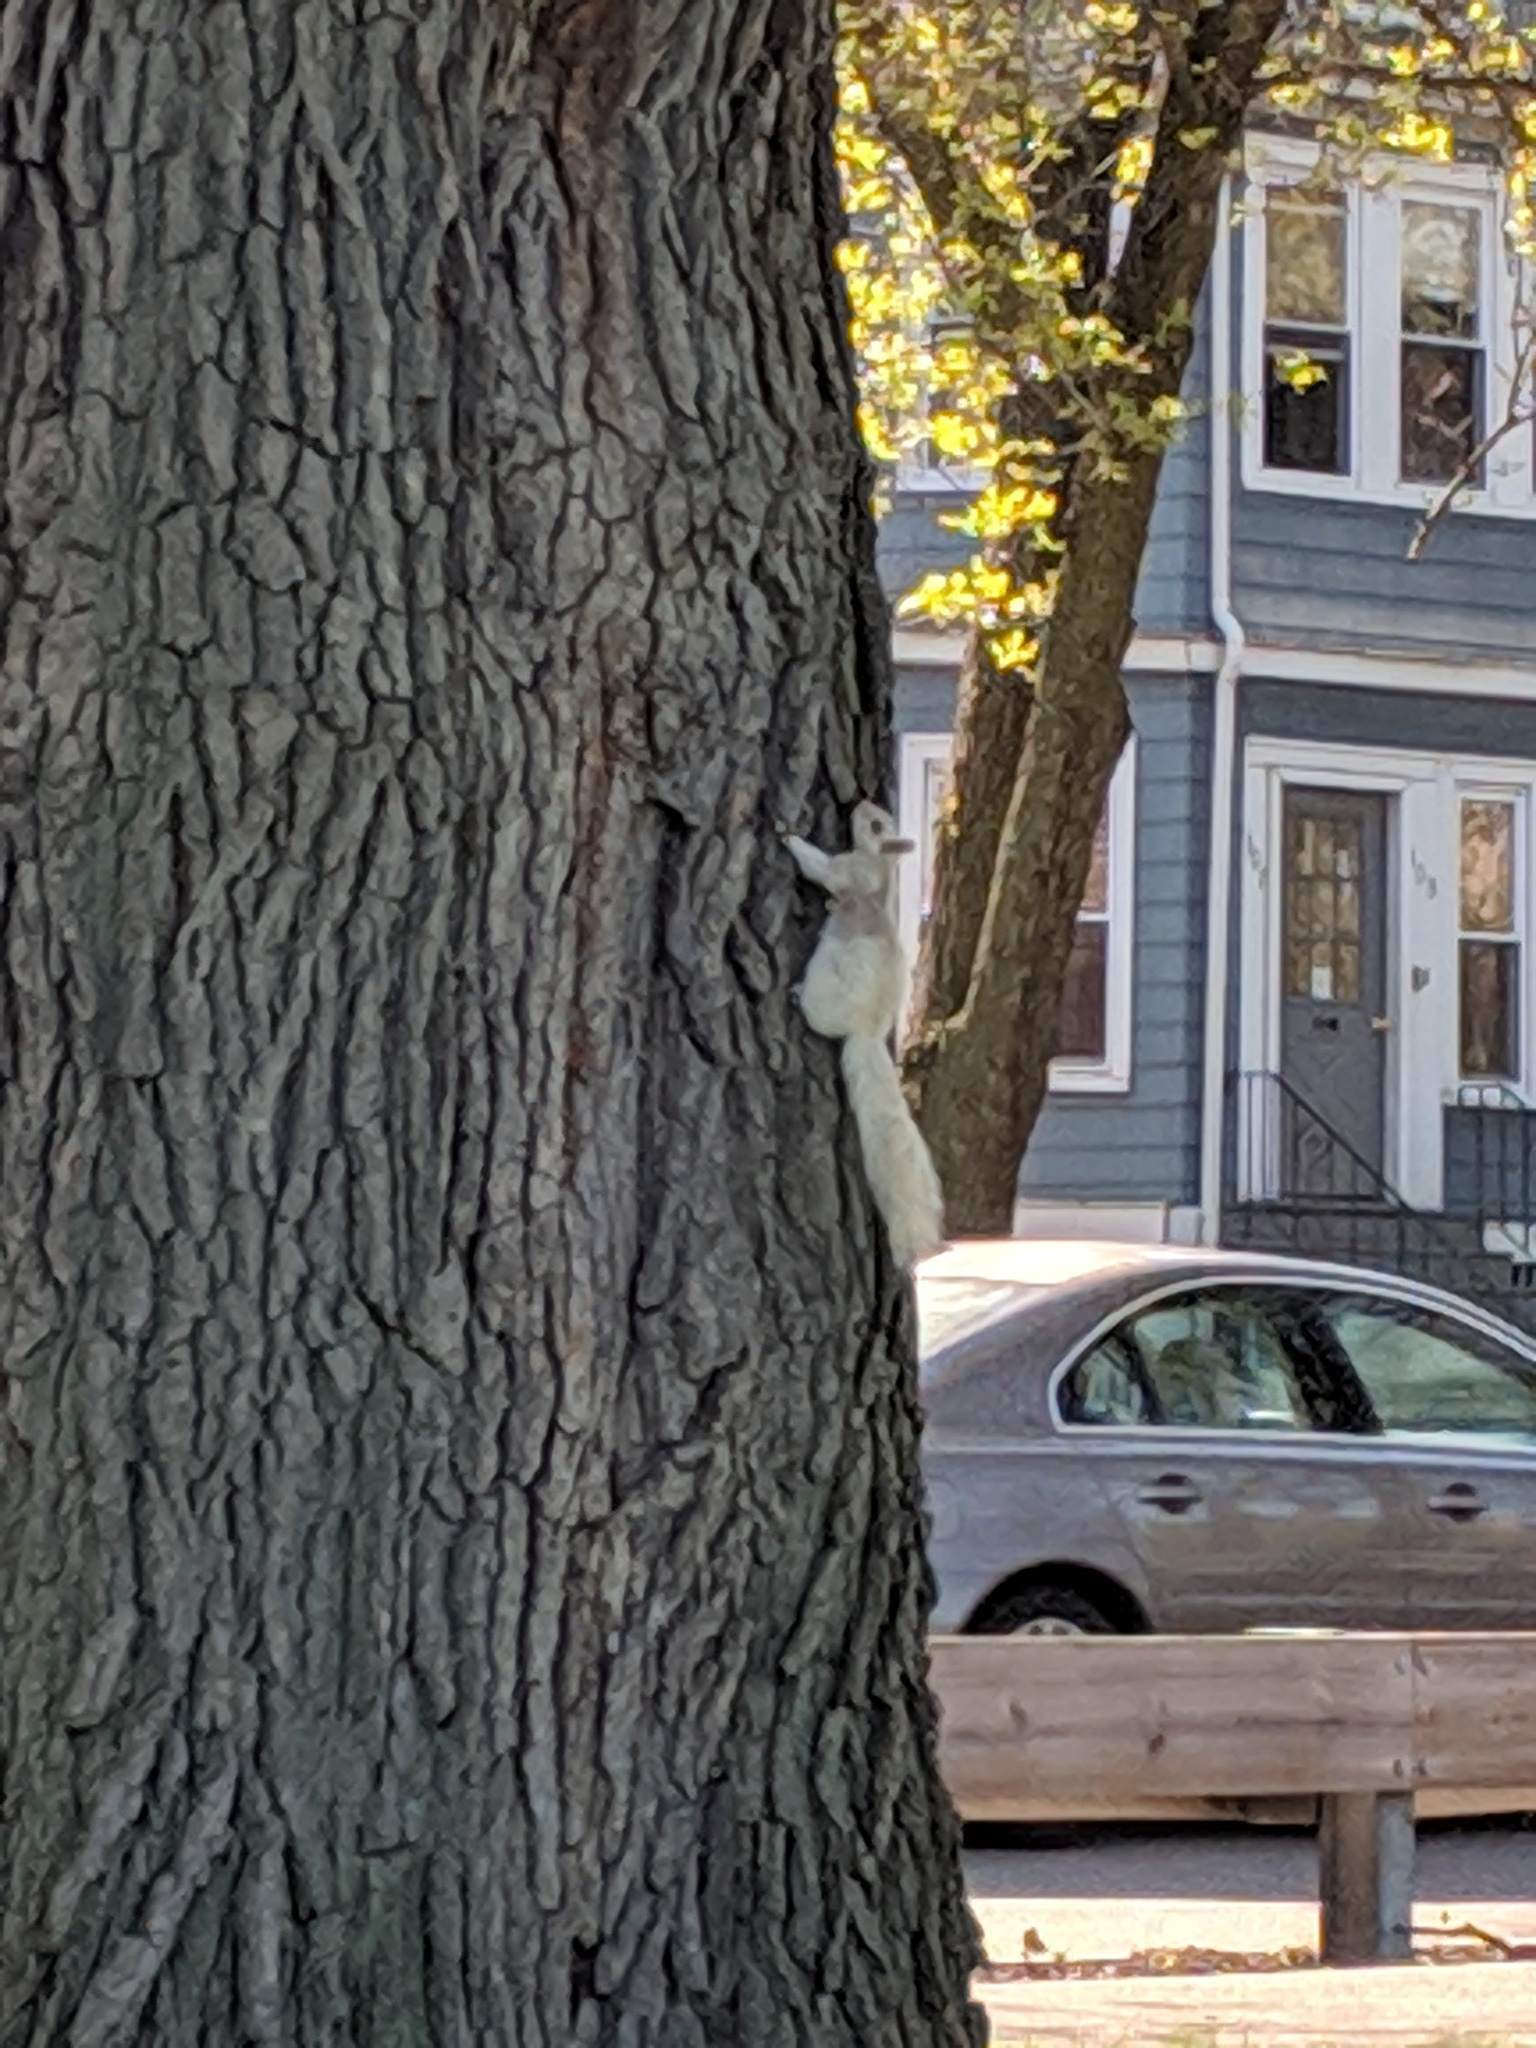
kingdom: Animalia
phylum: Chordata
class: Mammalia
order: Rodentia
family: Sciuridae
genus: Sciurus
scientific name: Sciurus carolinensis
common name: Eastern gray squirrel
